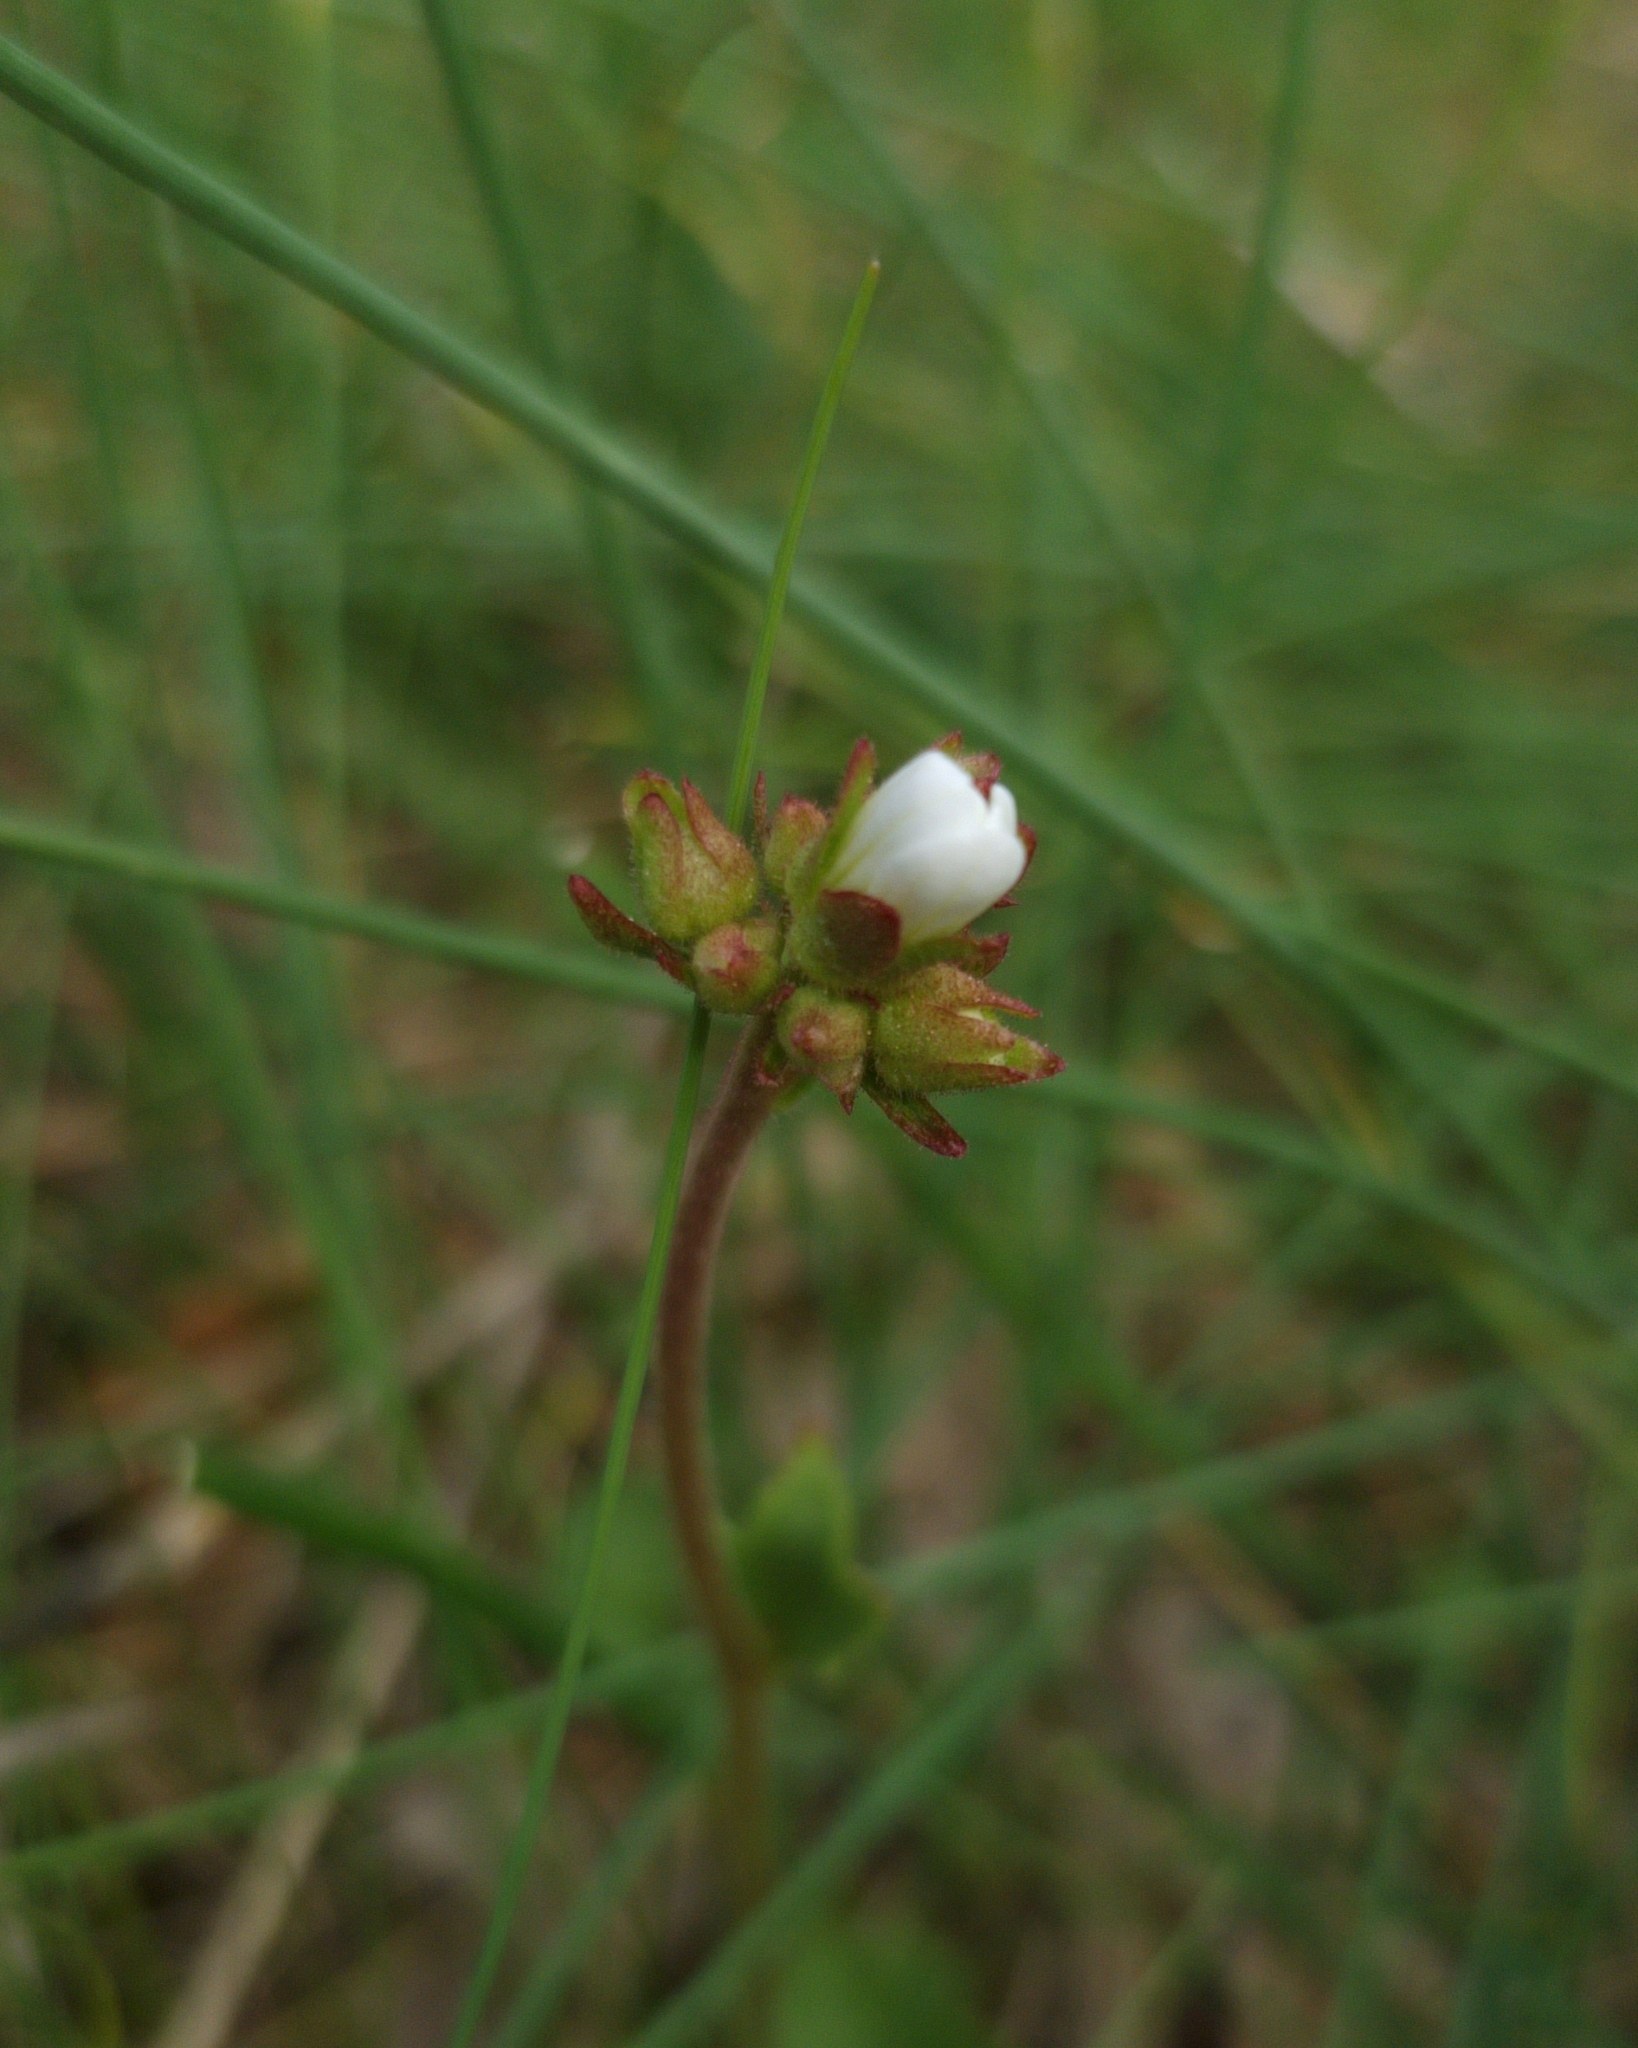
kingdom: Plantae
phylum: Tracheophyta
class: Magnoliopsida
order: Saxifragales
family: Saxifragaceae
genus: Saxifraga
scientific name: Saxifraga granulata
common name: Meadow saxifrage
